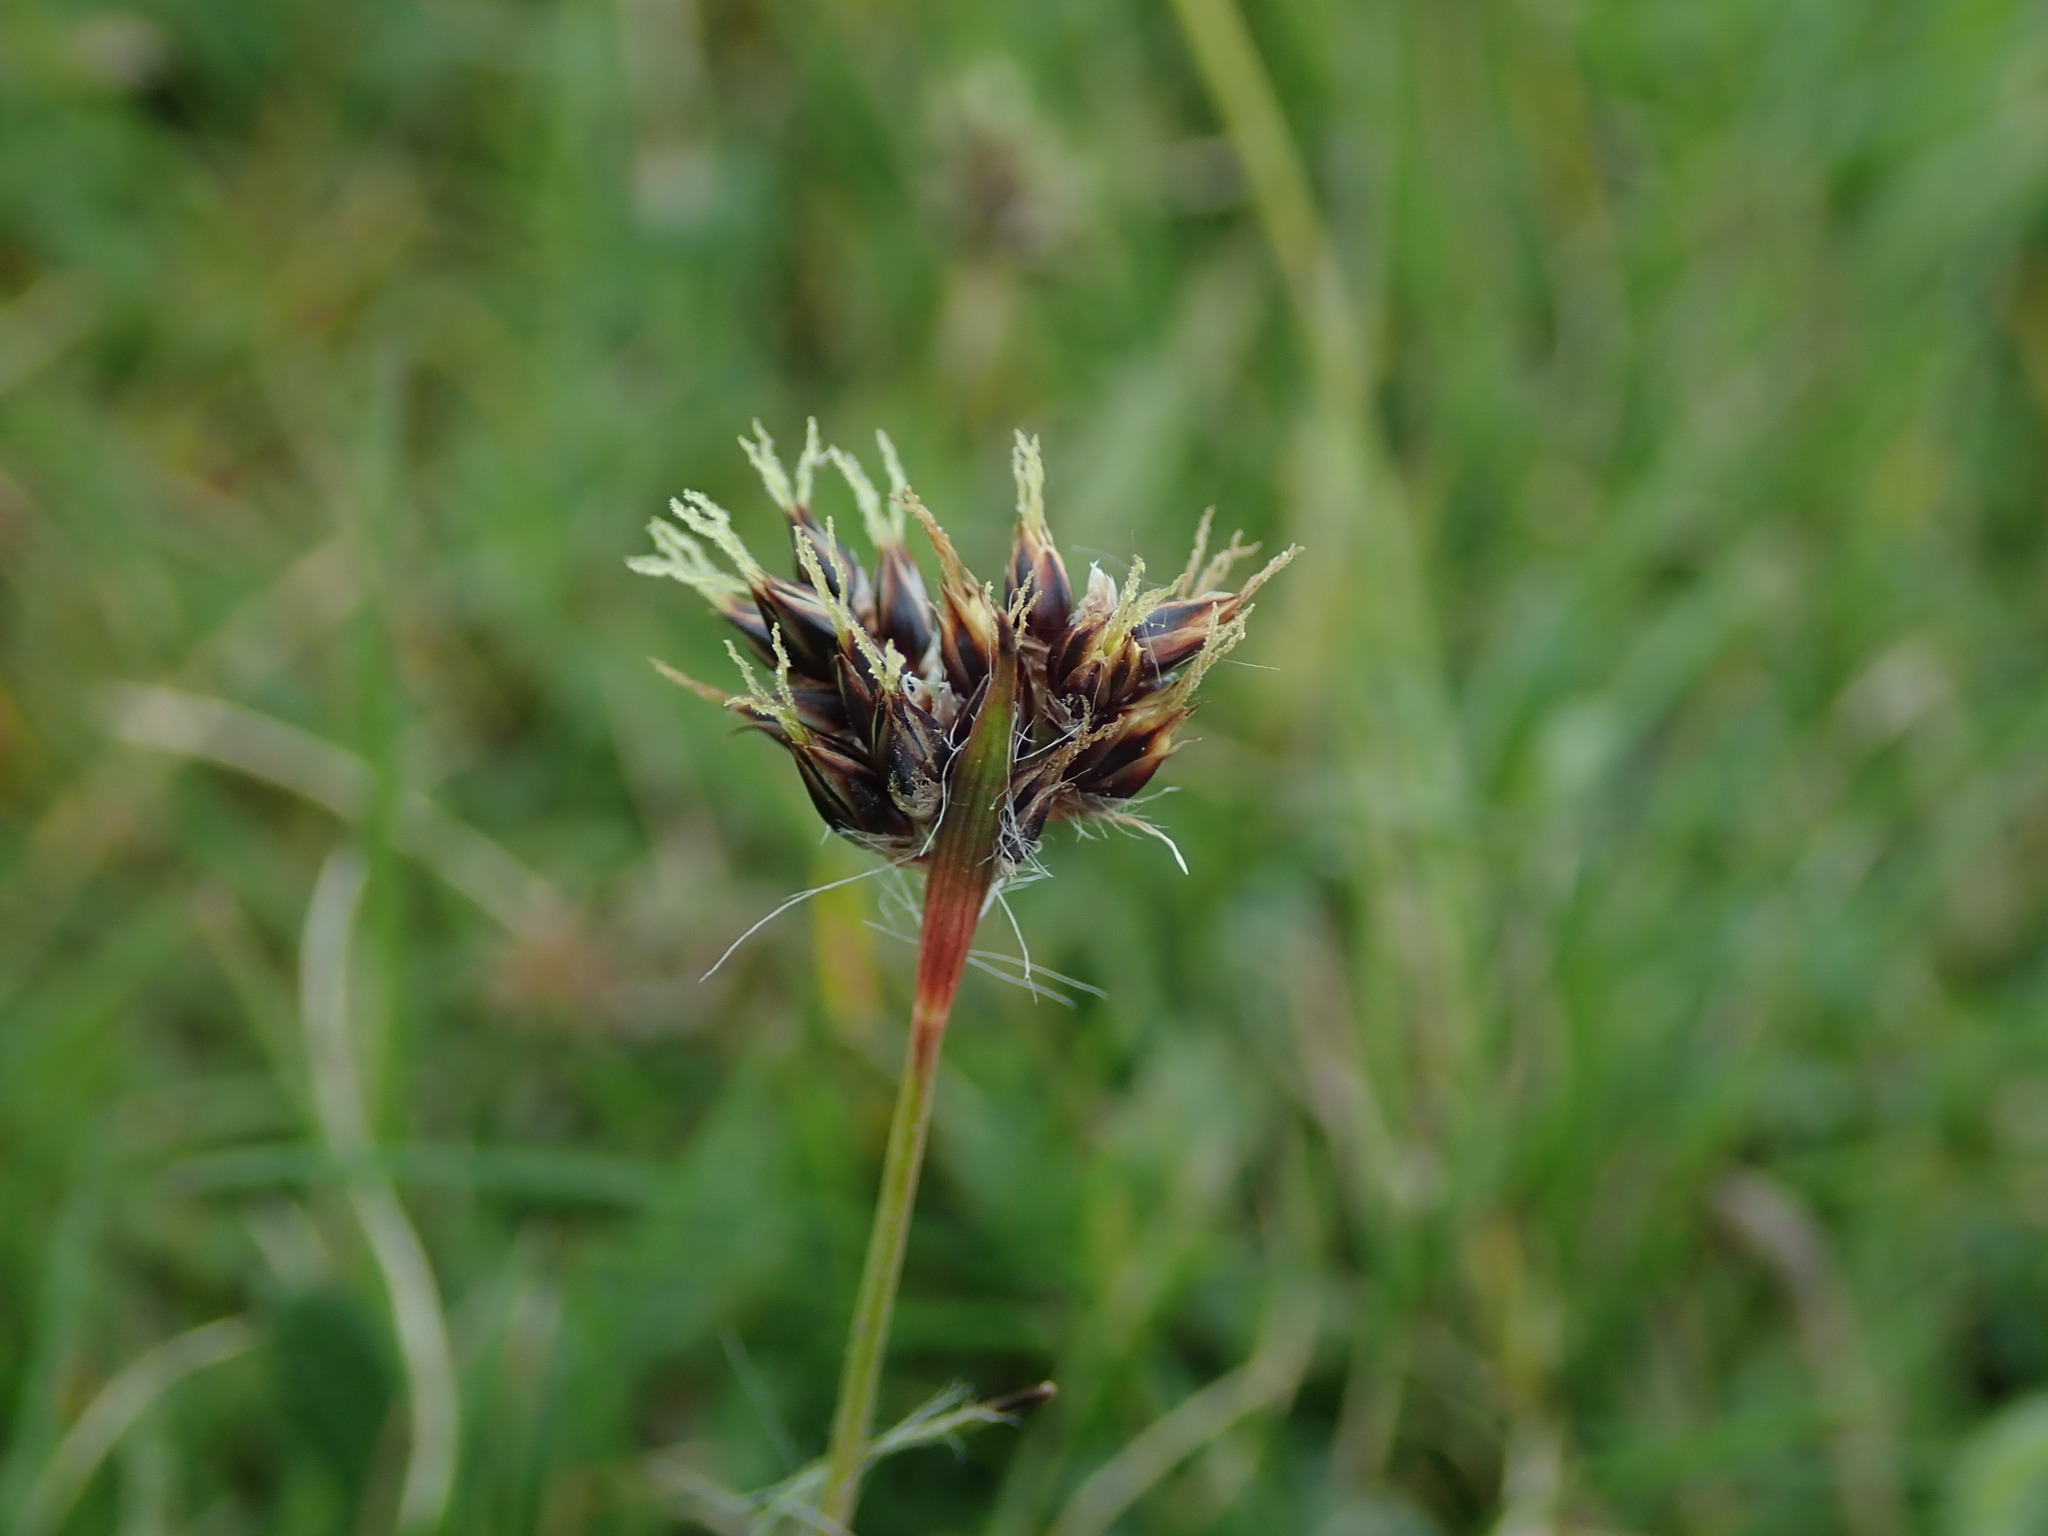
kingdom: Plantae
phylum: Tracheophyta
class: Liliopsida
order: Poales
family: Juncaceae
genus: Luzula
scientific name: Luzula campestris
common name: Field wood-rush
